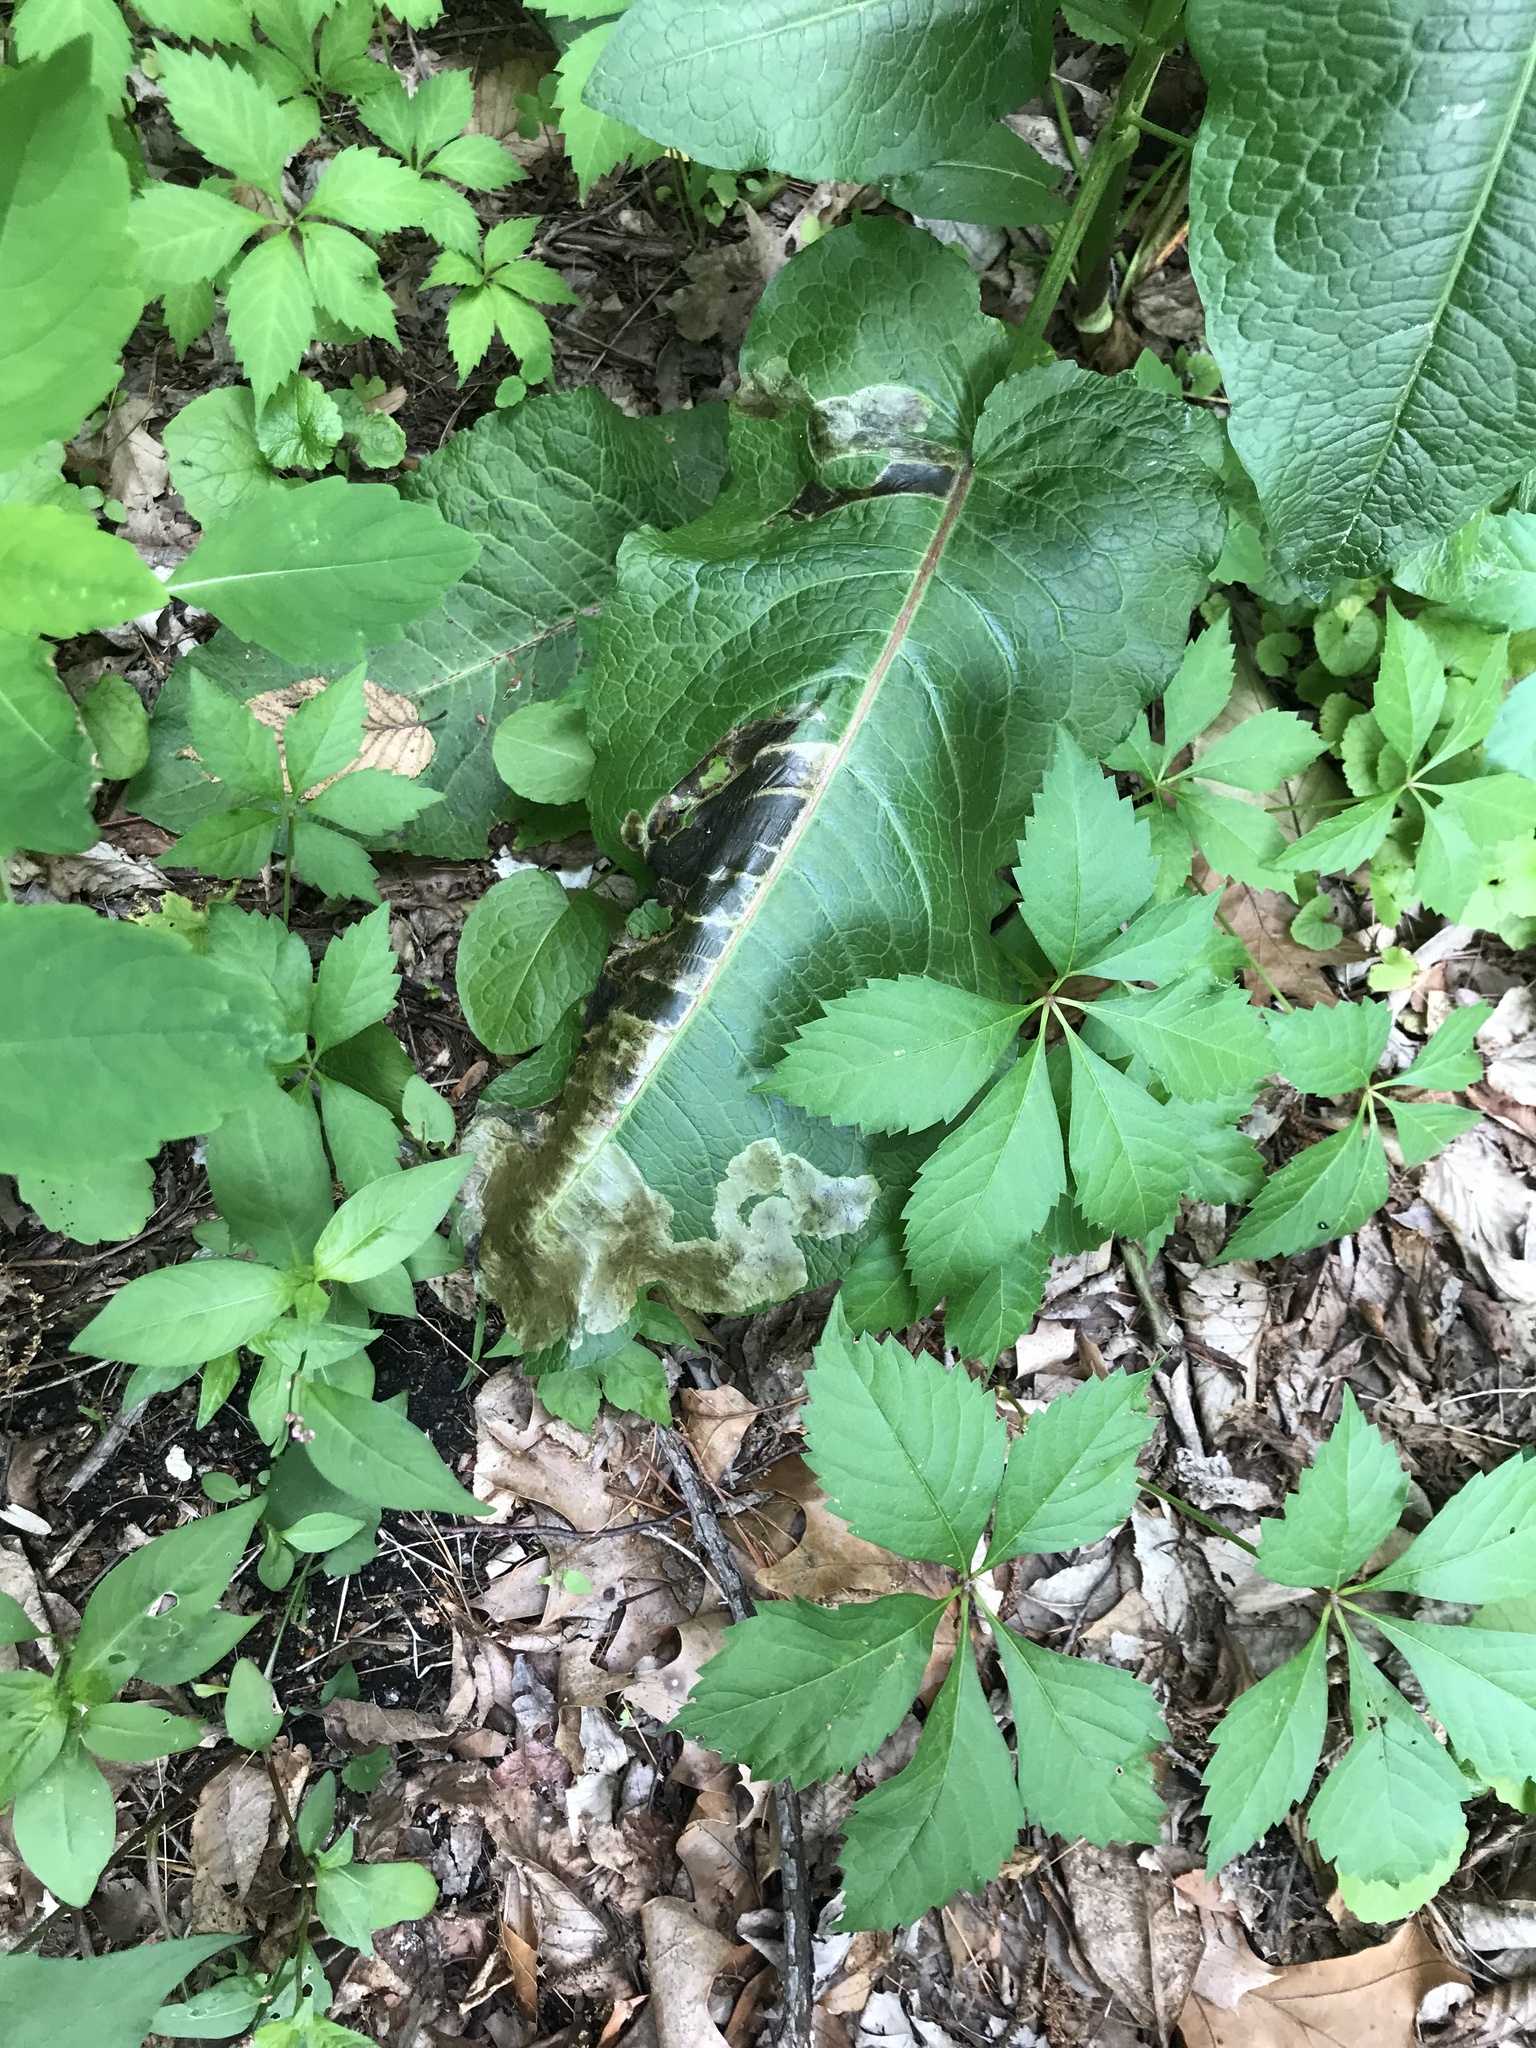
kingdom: Animalia
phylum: Arthropoda
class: Insecta
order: Diptera
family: Anthomyiidae
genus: Pegomya
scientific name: Pegomya bicolor
